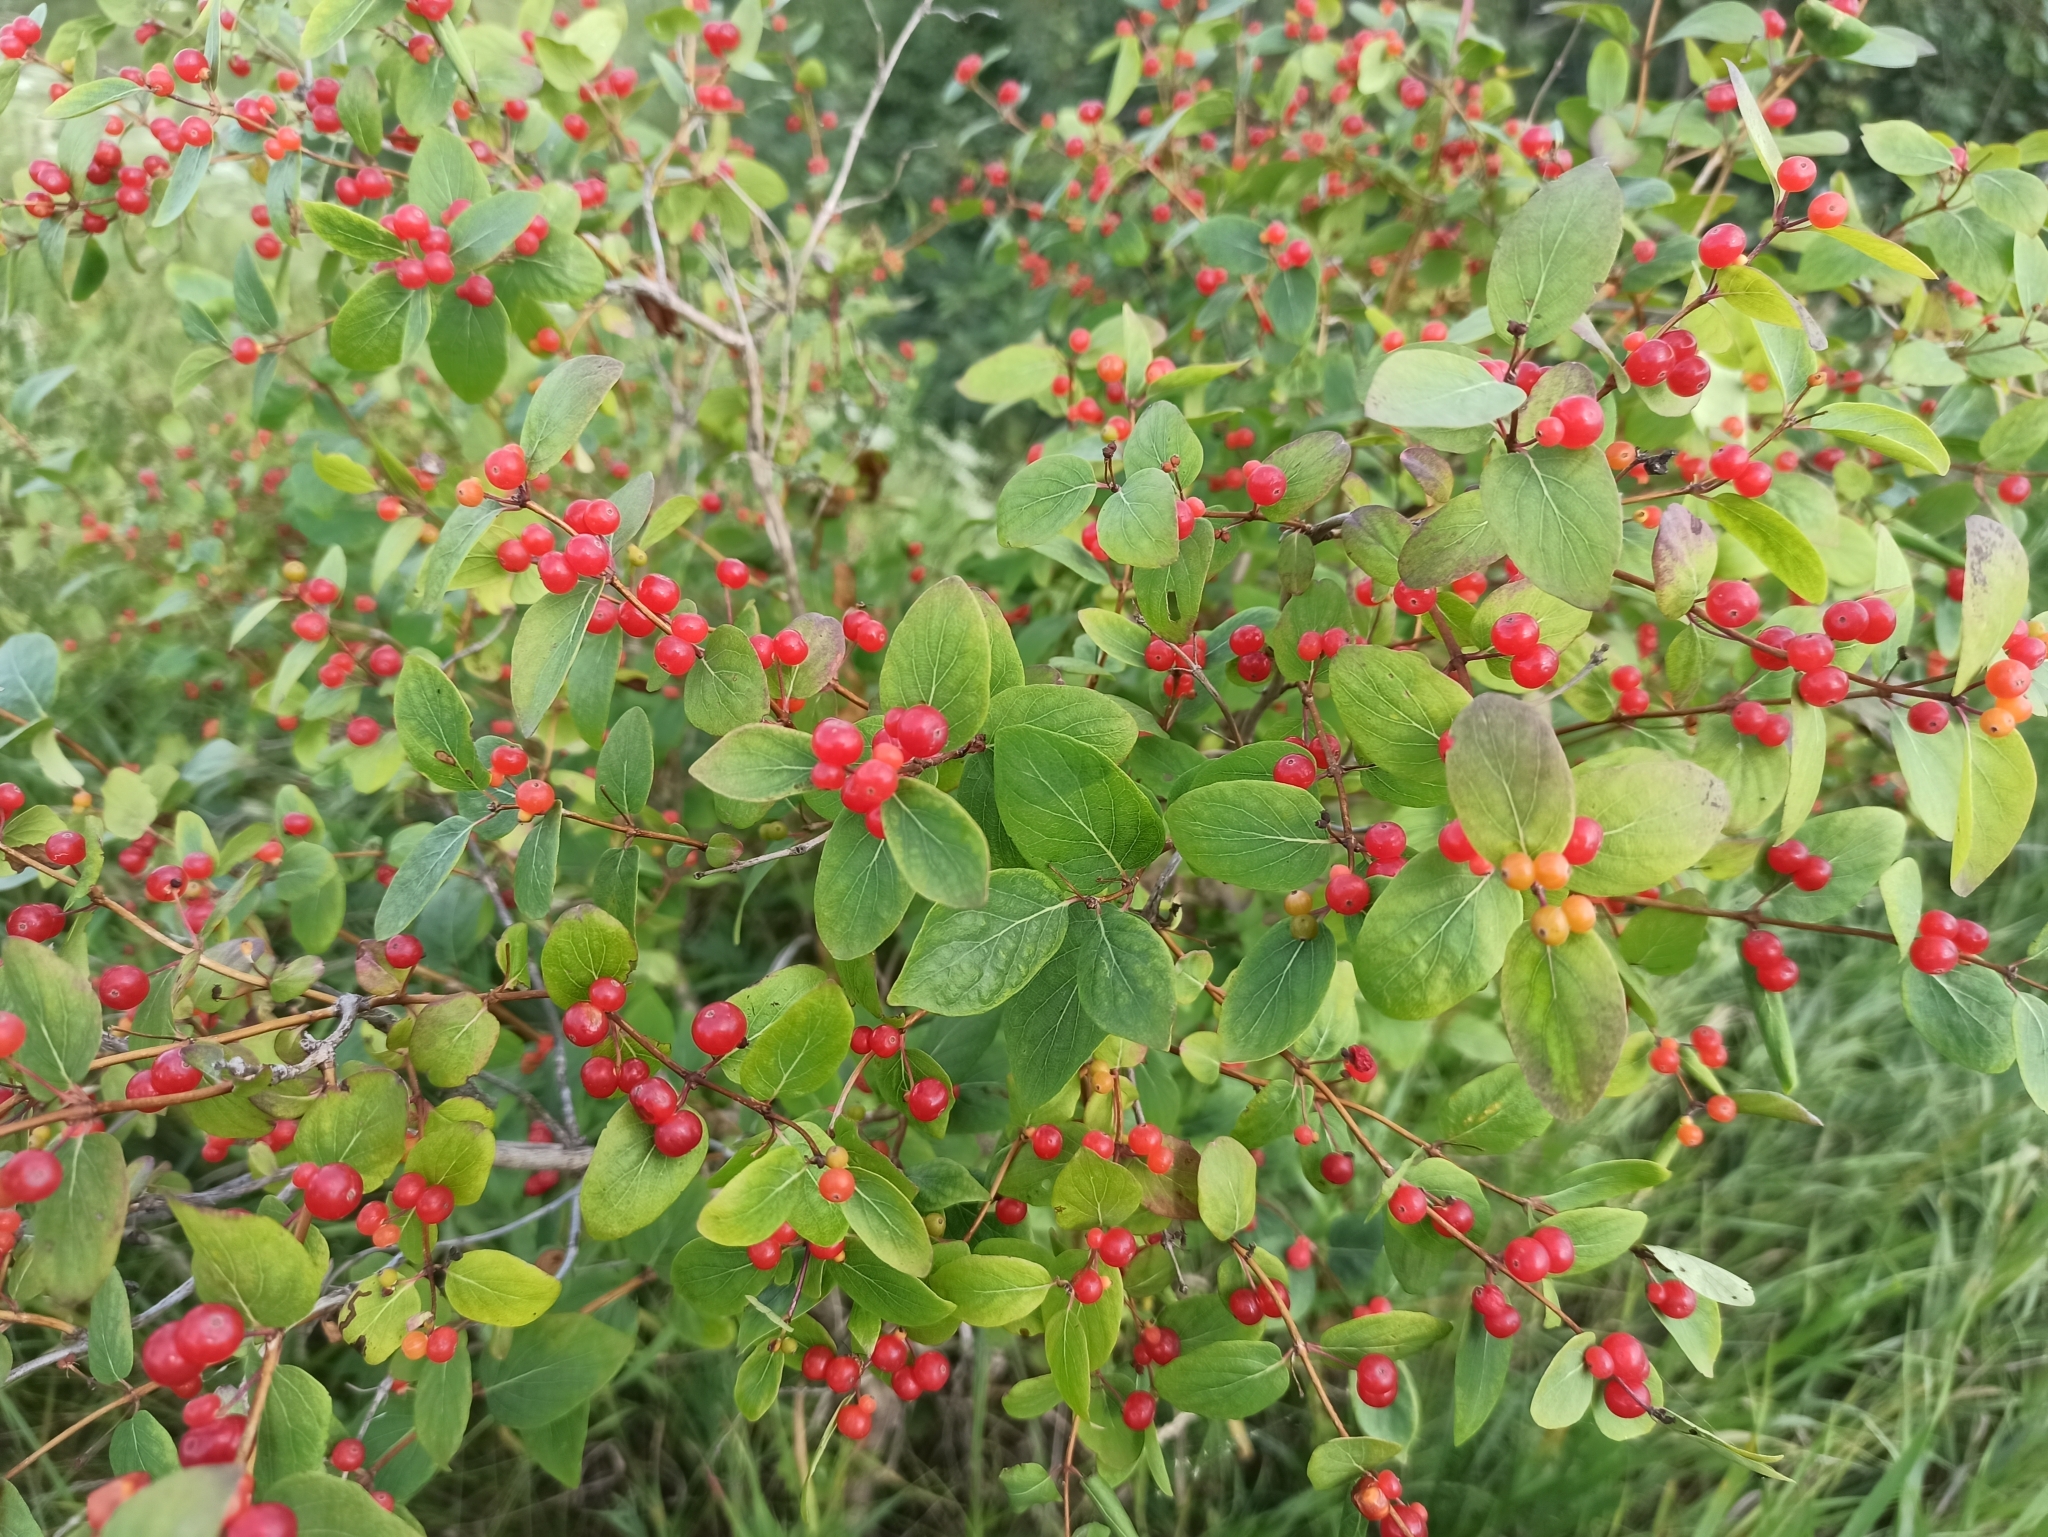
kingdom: Plantae
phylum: Tracheophyta
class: Magnoliopsida
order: Dipsacales
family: Caprifoliaceae
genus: Lonicera
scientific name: Lonicera tatarica
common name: Tatarian honeysuckle
